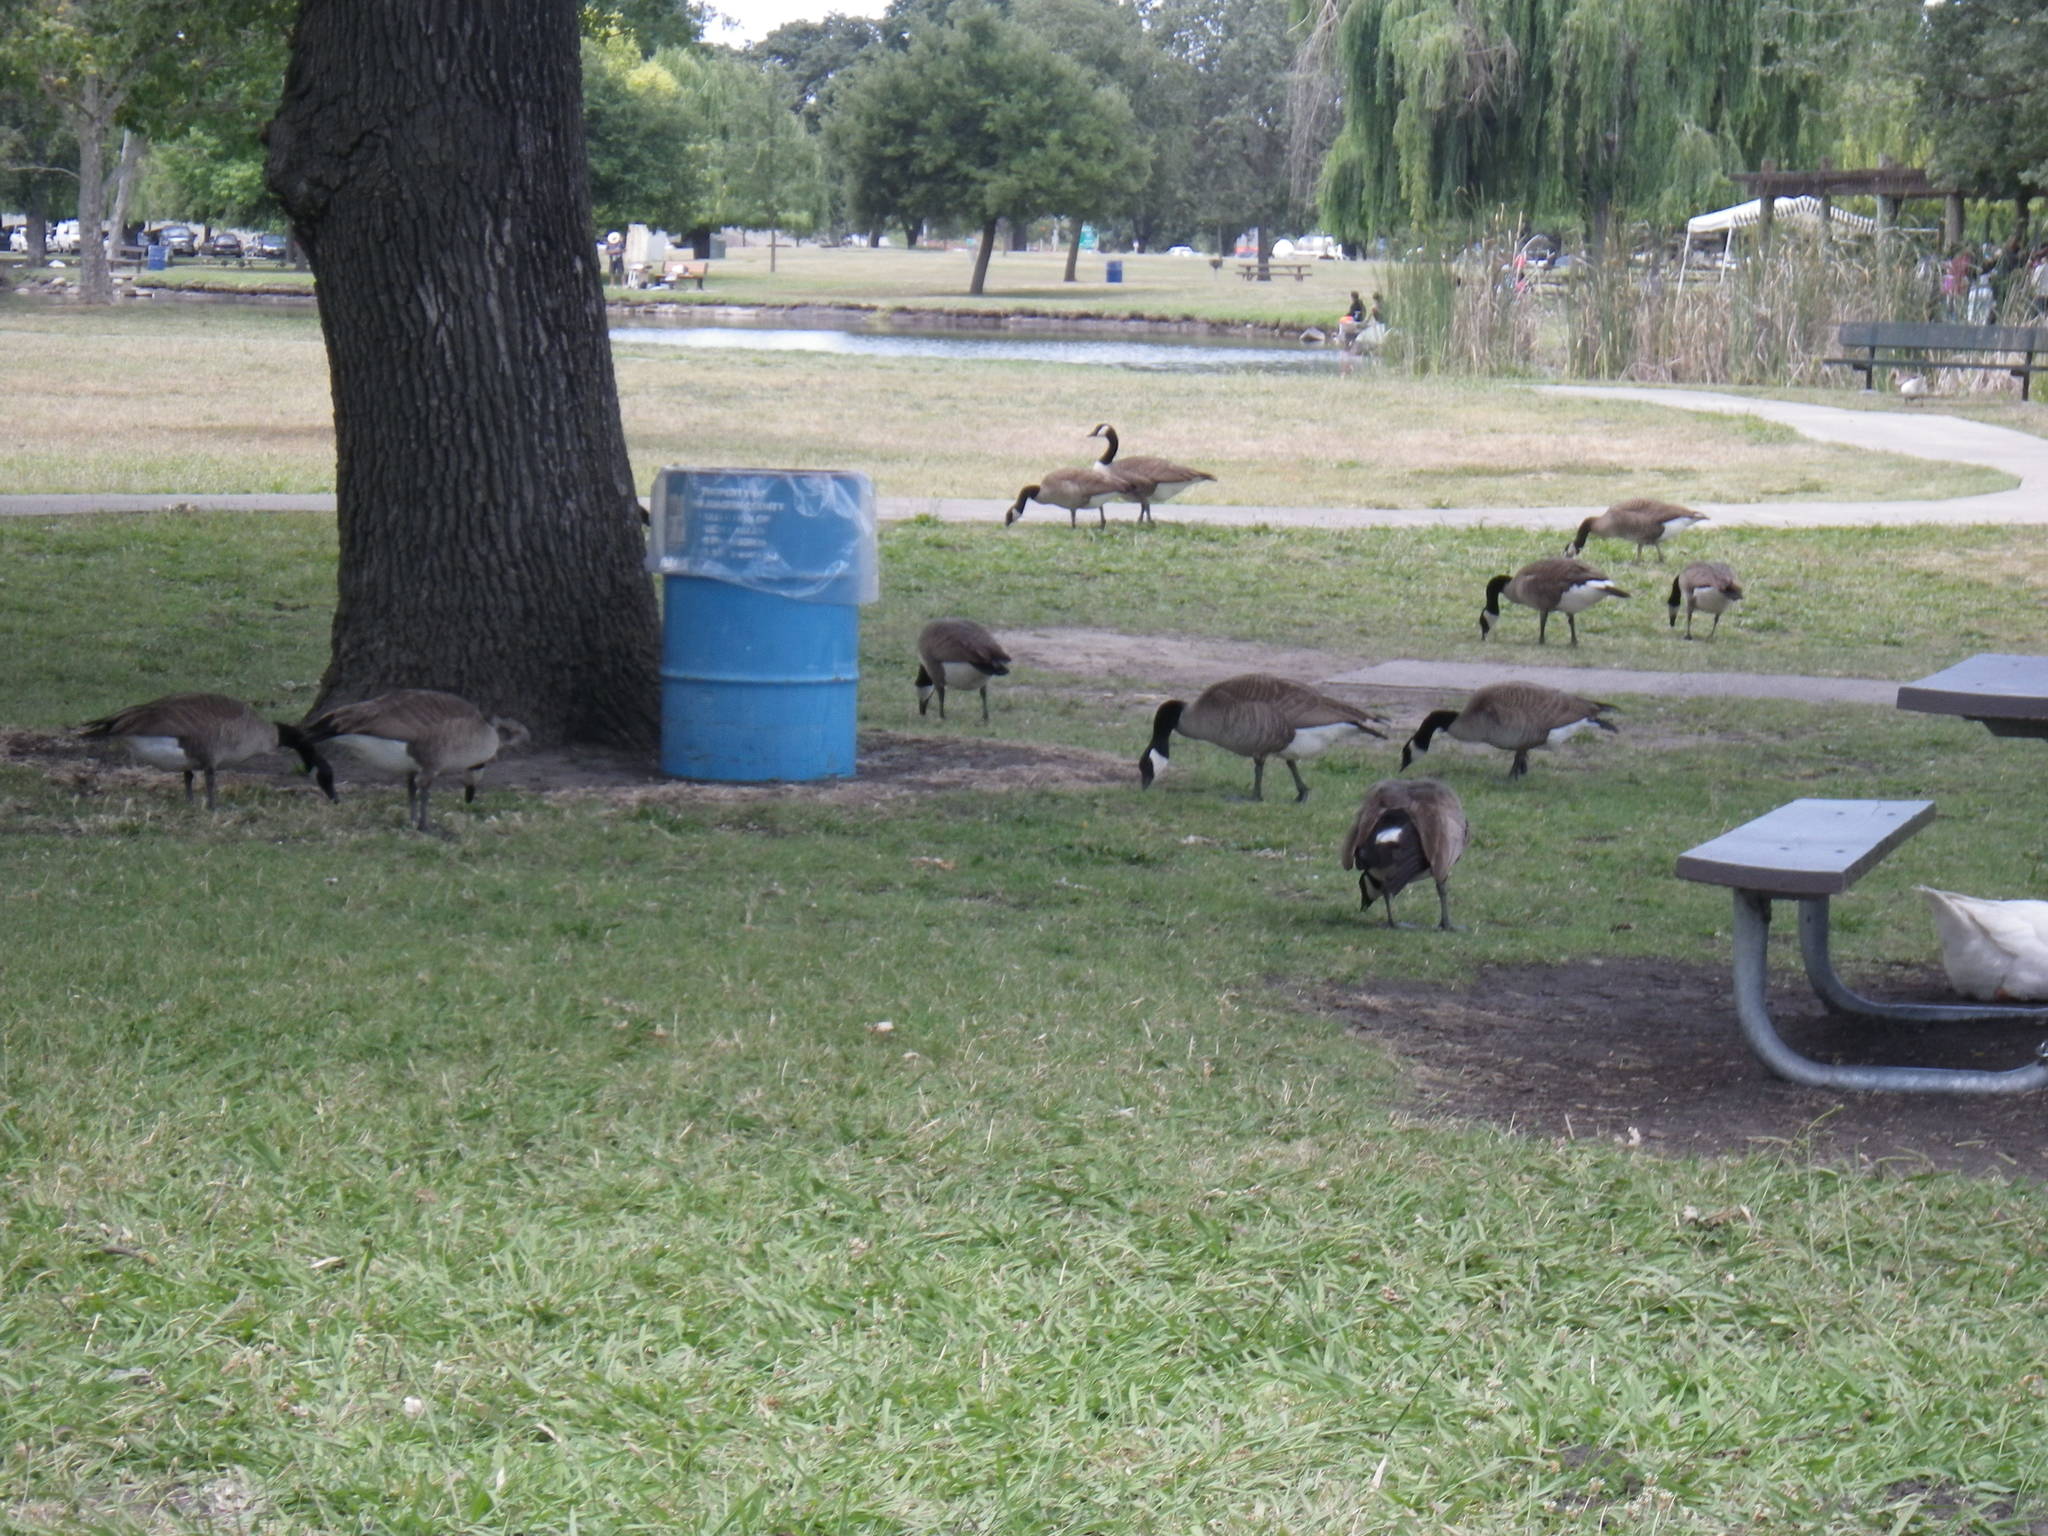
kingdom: Animalia
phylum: Chordata
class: Aves
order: Anseriformes
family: Anatidae
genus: Branta
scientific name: Branta canadensis
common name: Canada goose
